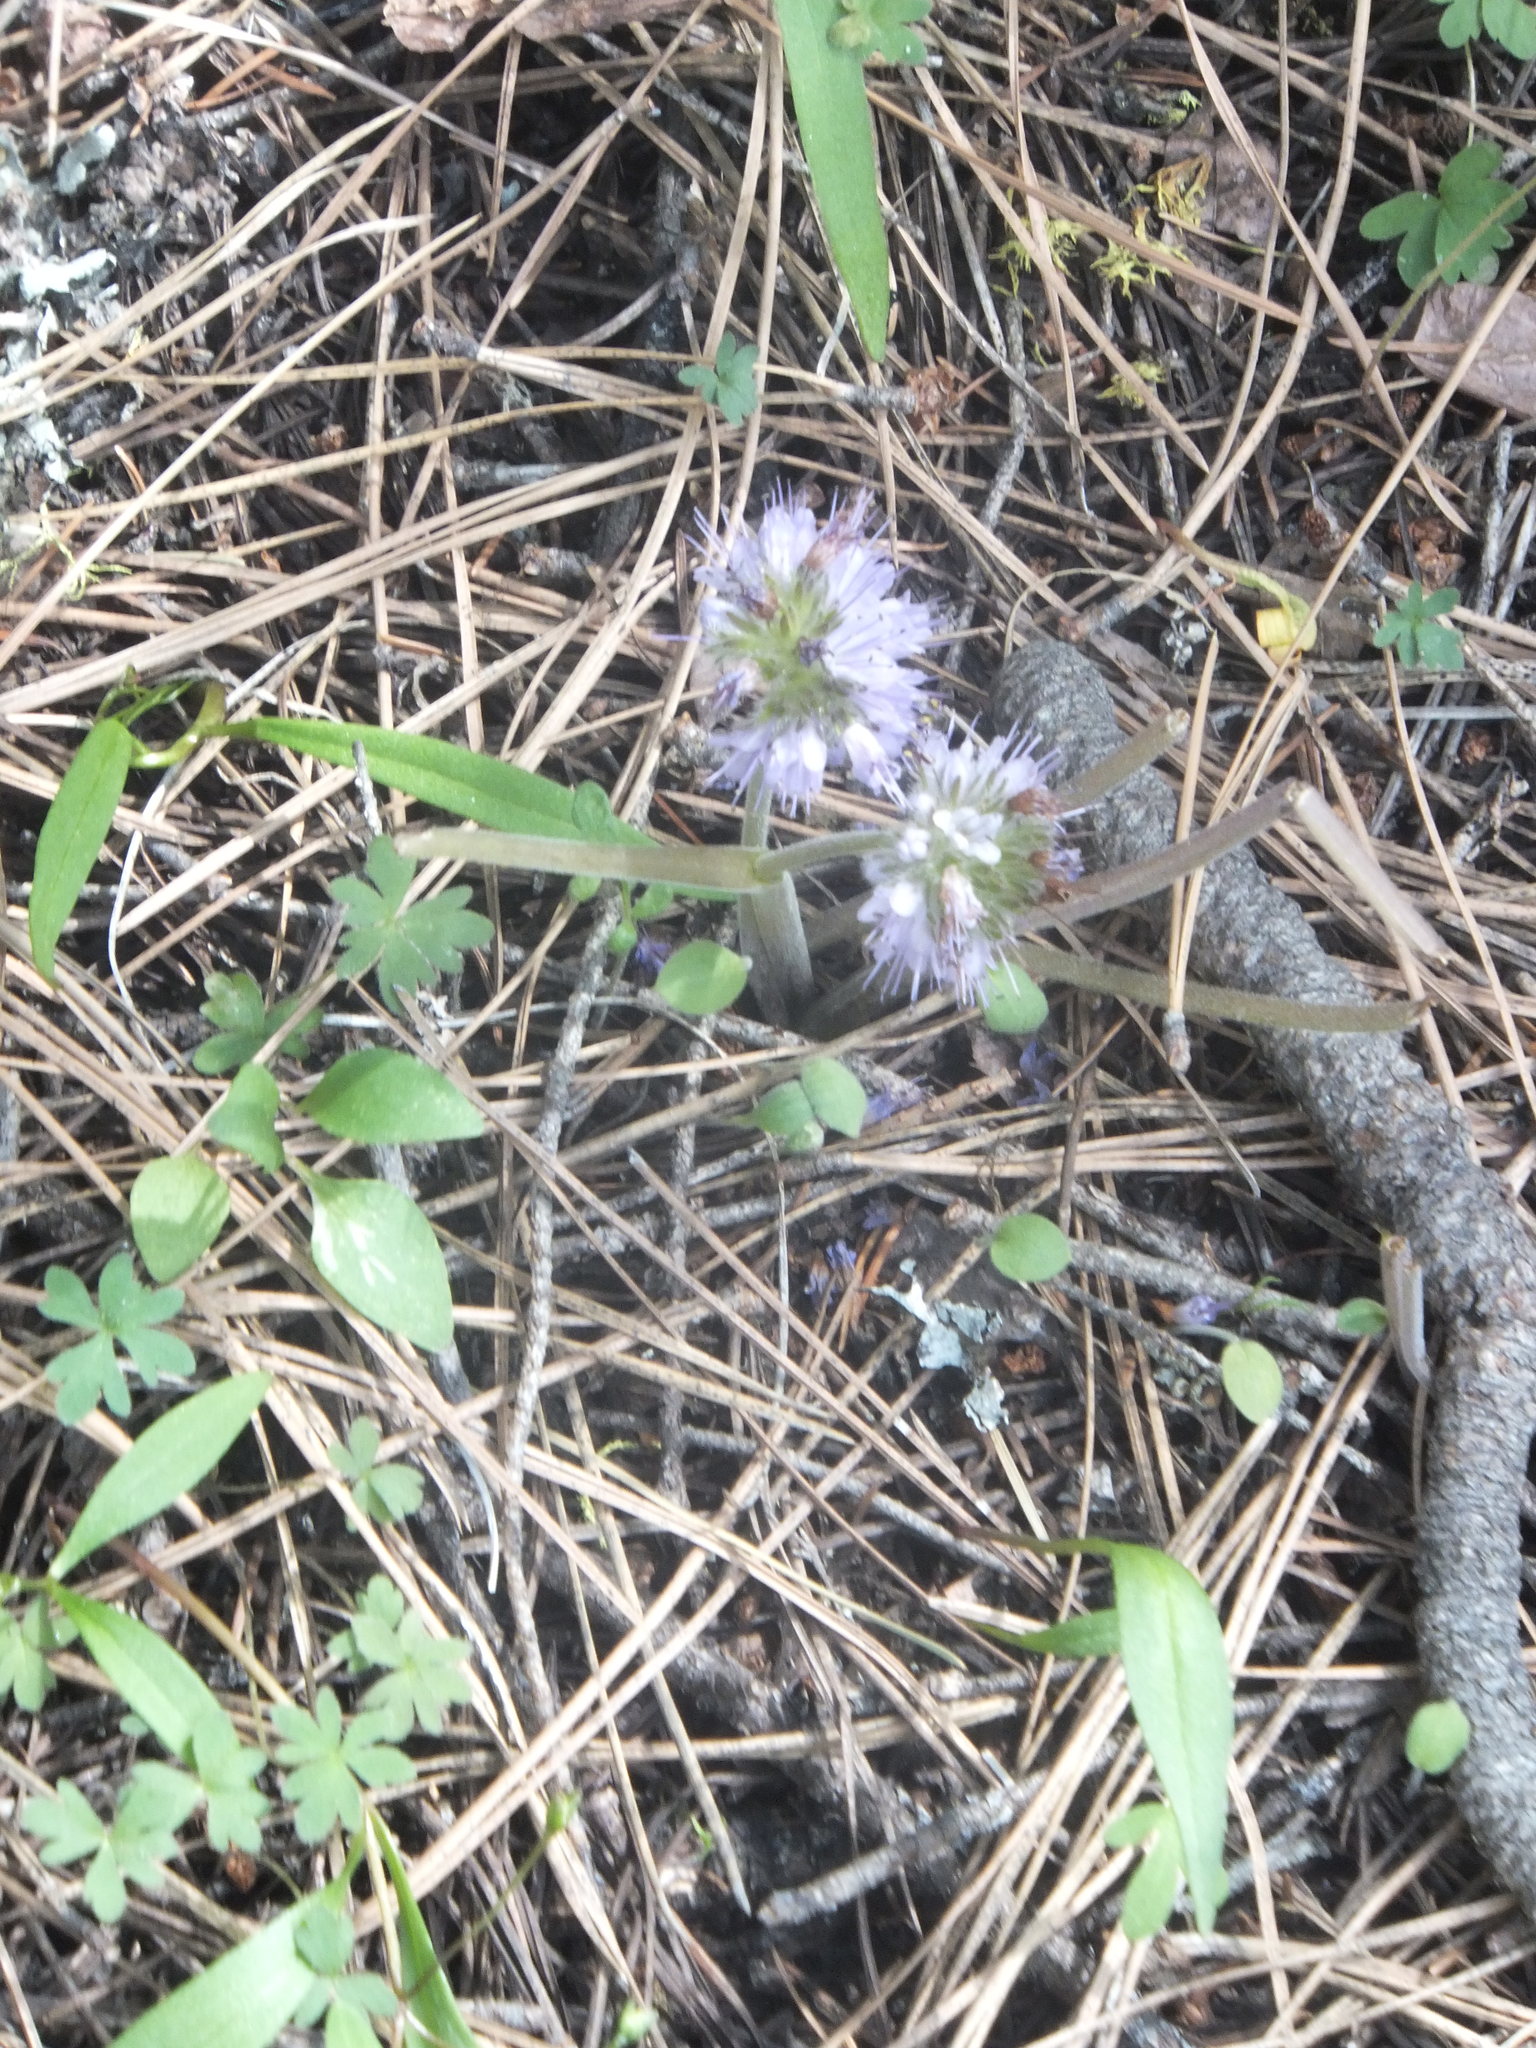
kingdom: Plantae
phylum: Tracheophyta
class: Magnoliopsida
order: Boraginales
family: Hydrophyllaceae
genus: Hydrophyllum
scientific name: Hydrophyllum capitatum
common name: Woollen-breeches
